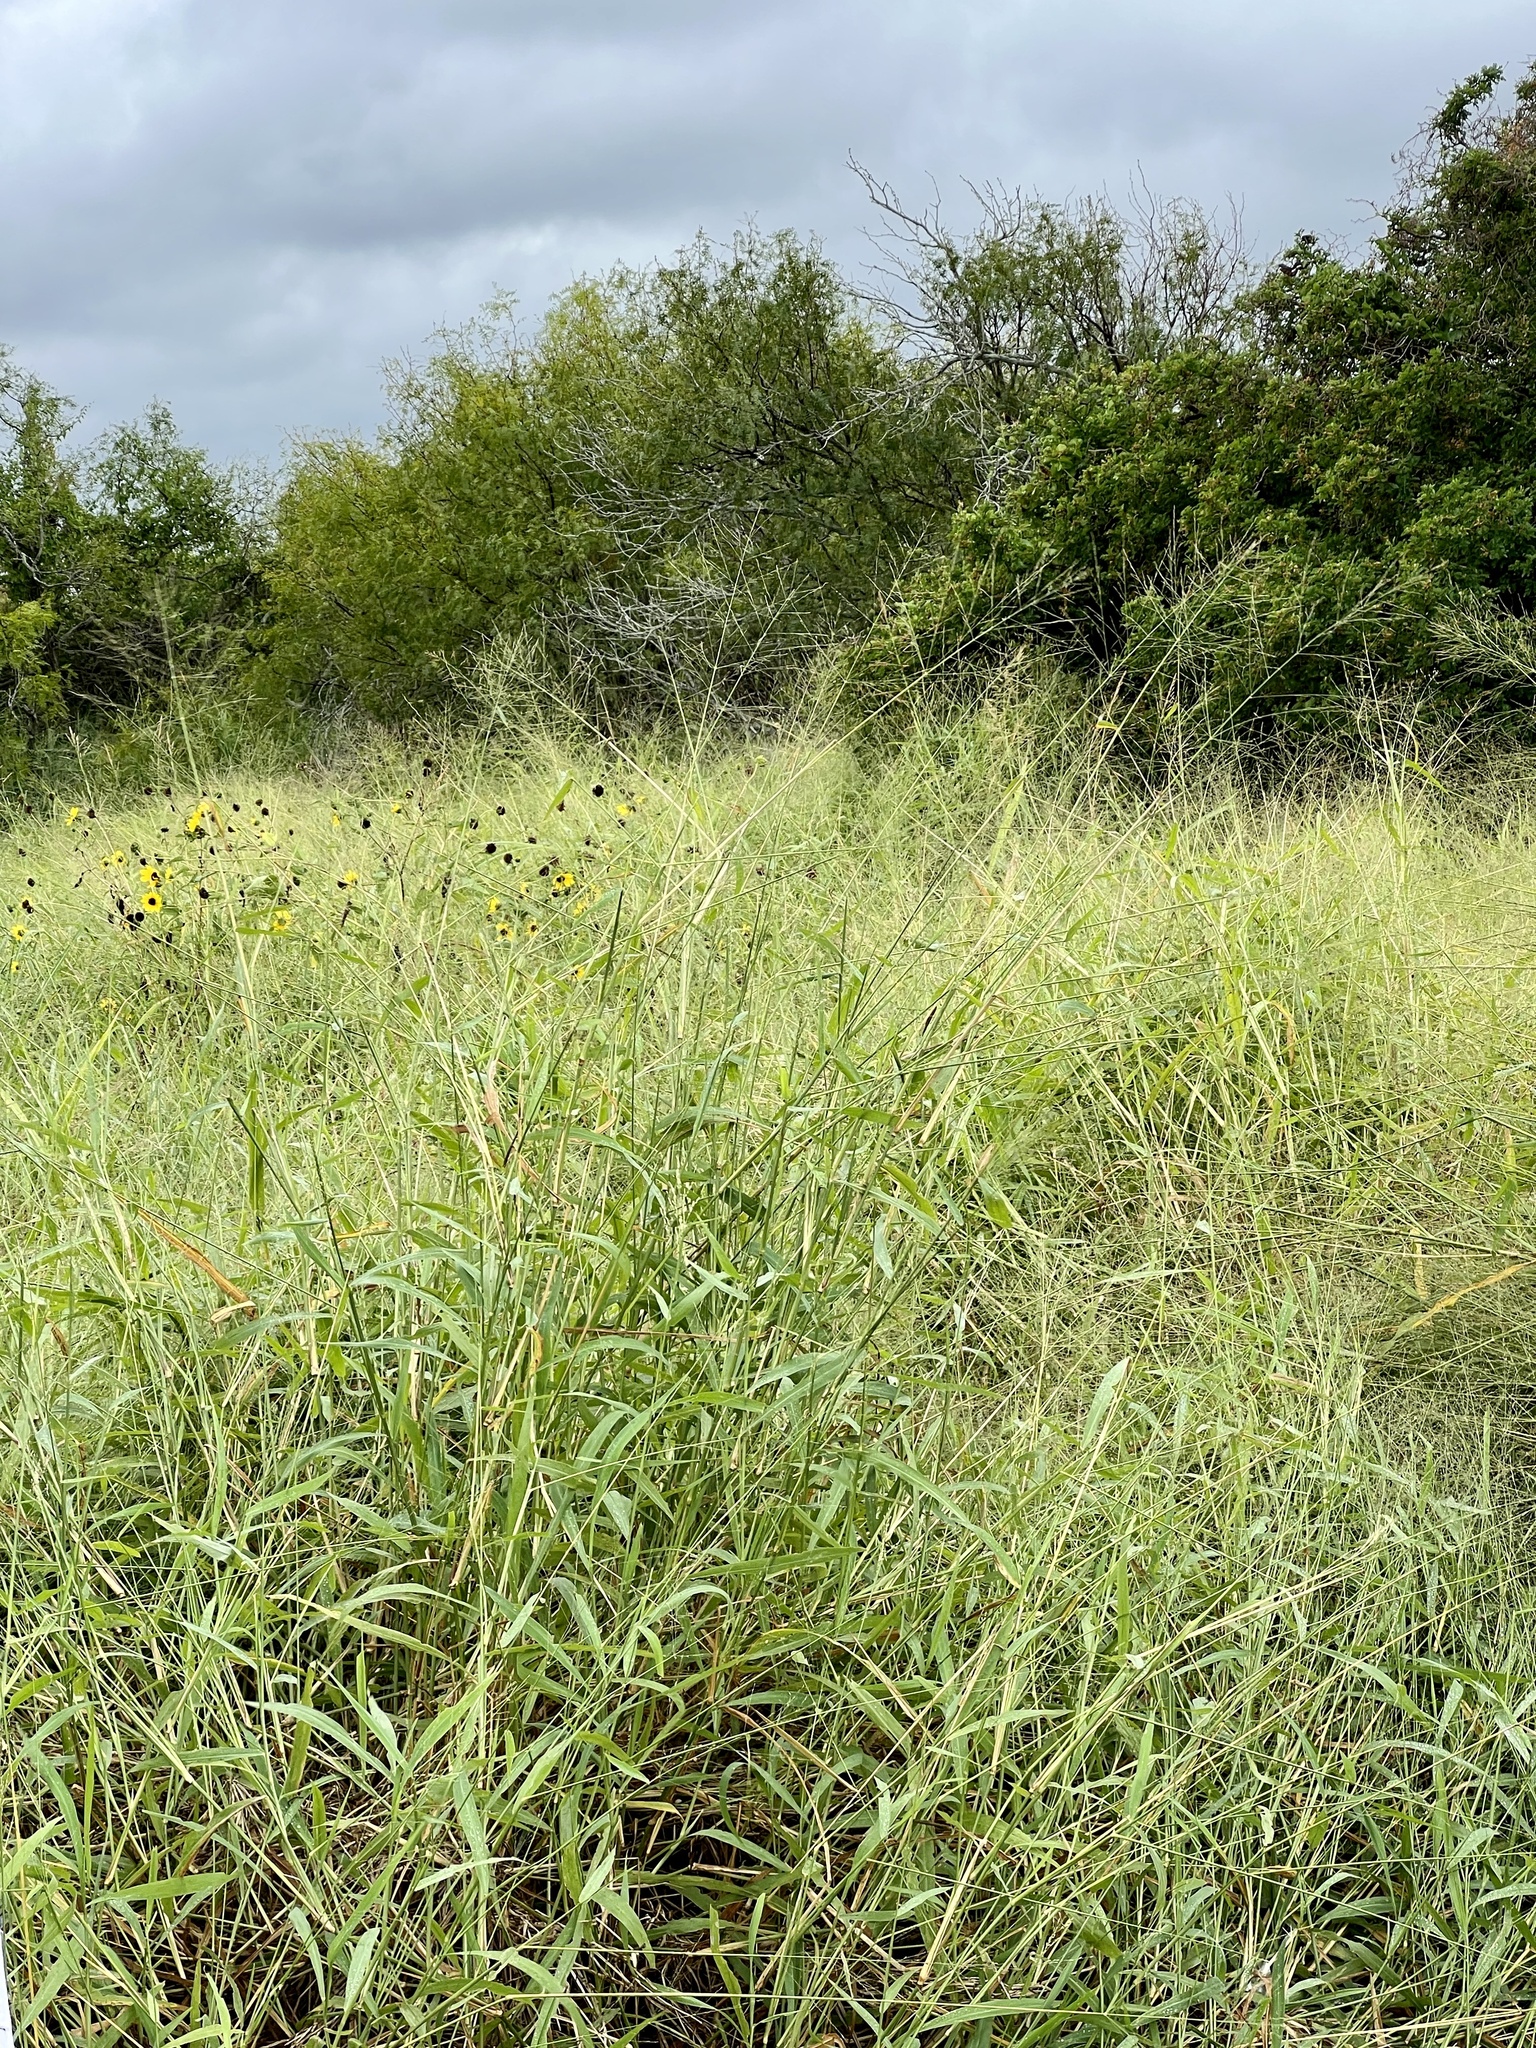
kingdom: Plantae
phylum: Tracheophyta
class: Liliopsida
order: Poales
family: Poaceae
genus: Megathyrsus
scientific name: Megathyrsus maximus
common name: Guineagrass
